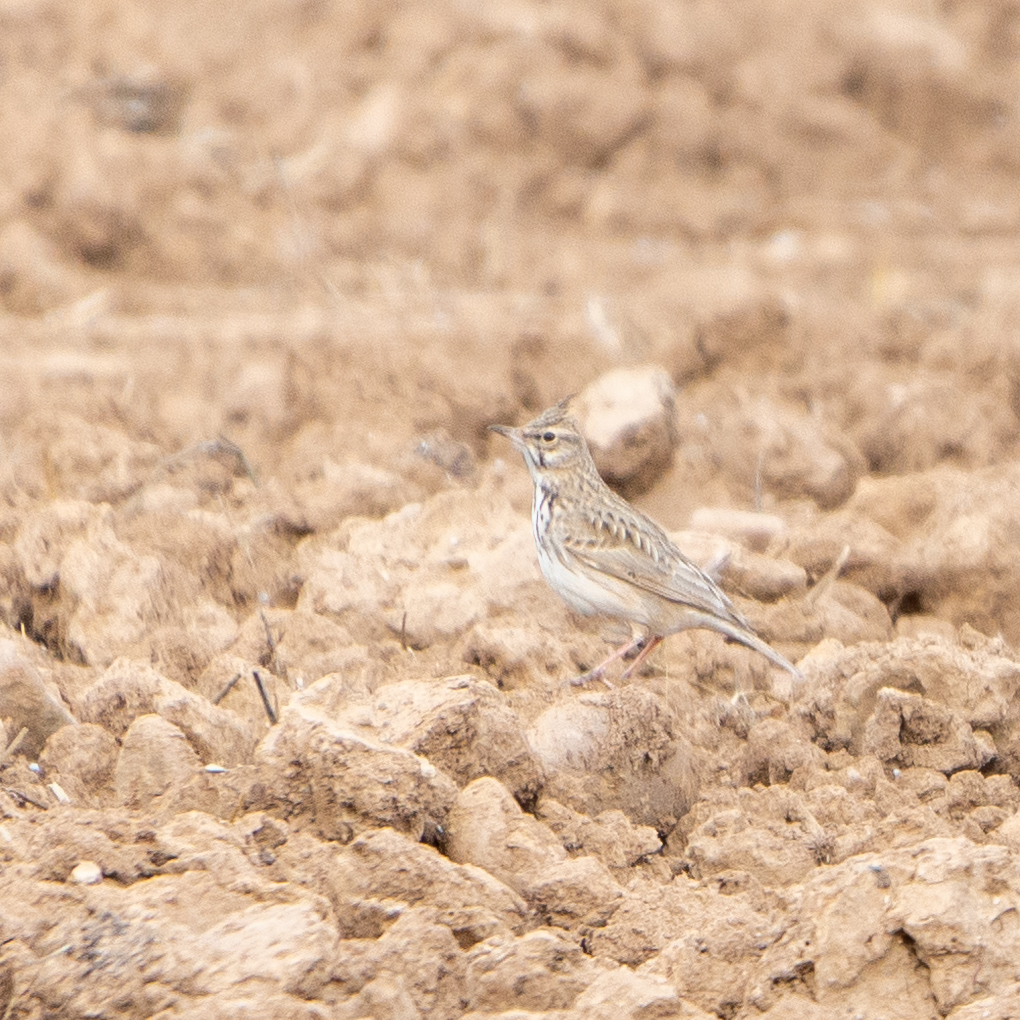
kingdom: Animalia
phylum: Chordata
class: Aves
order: Passeriformes
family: Alaudidae
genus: Galerida
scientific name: Galerida cristata
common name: Crested lark
